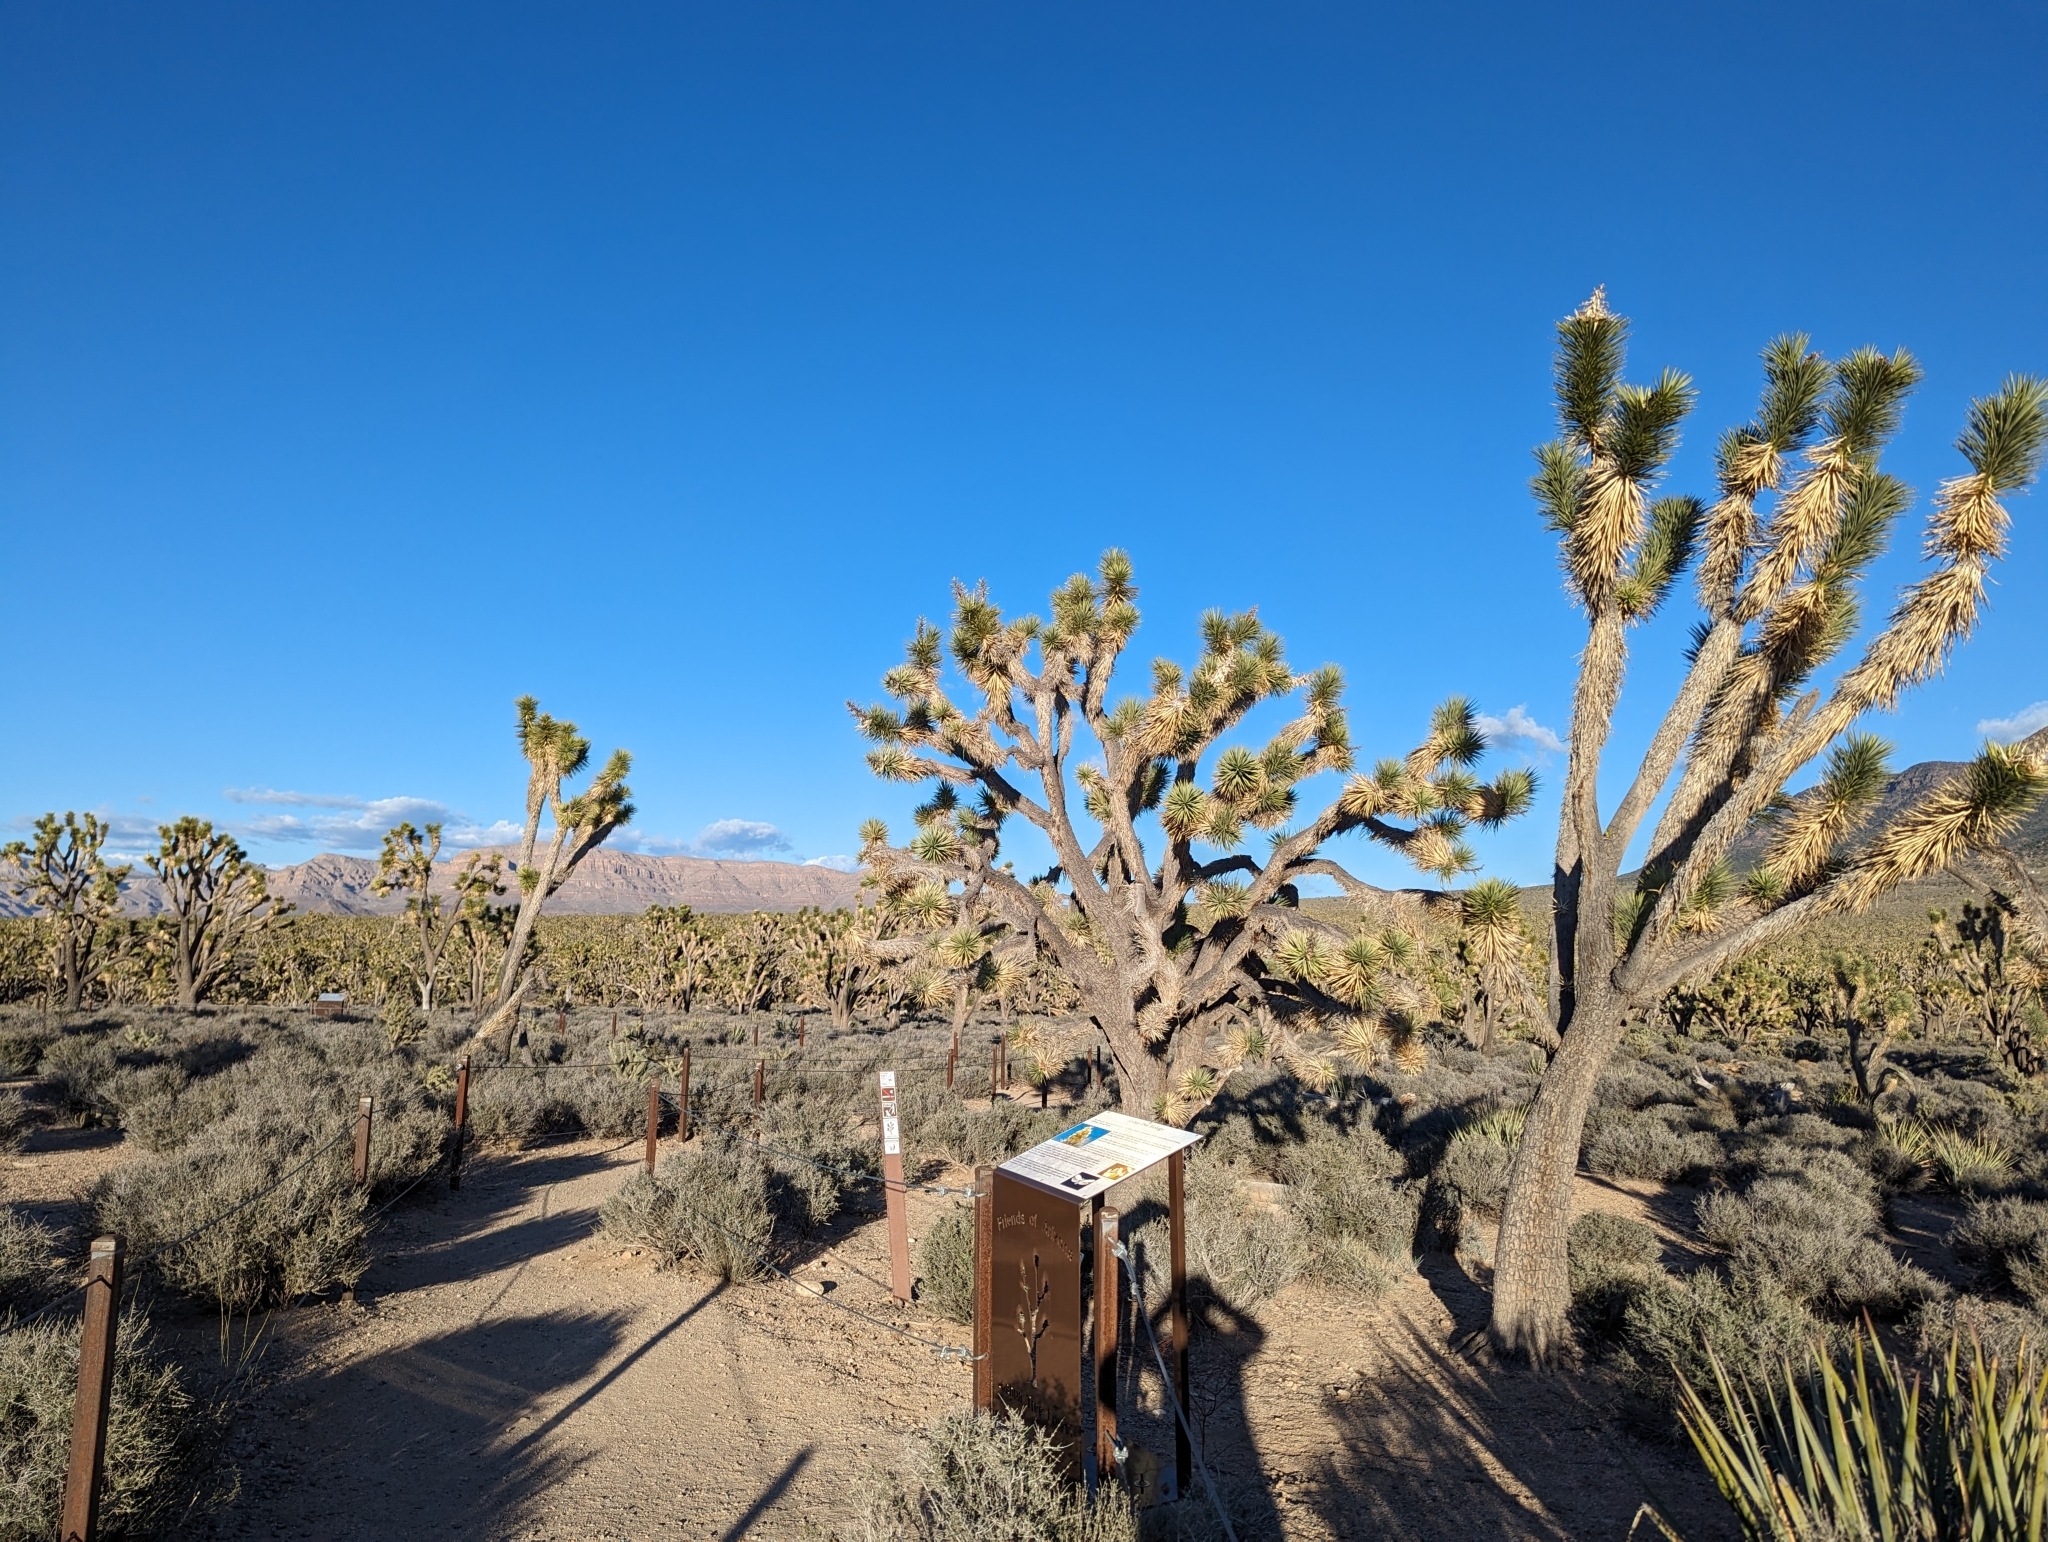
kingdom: Plantae
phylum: Tracheophyta
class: Liliopsida
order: Asparagales
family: Asparagaceae
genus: Yucca
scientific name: Yucca brevifolia
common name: Joshua tree
